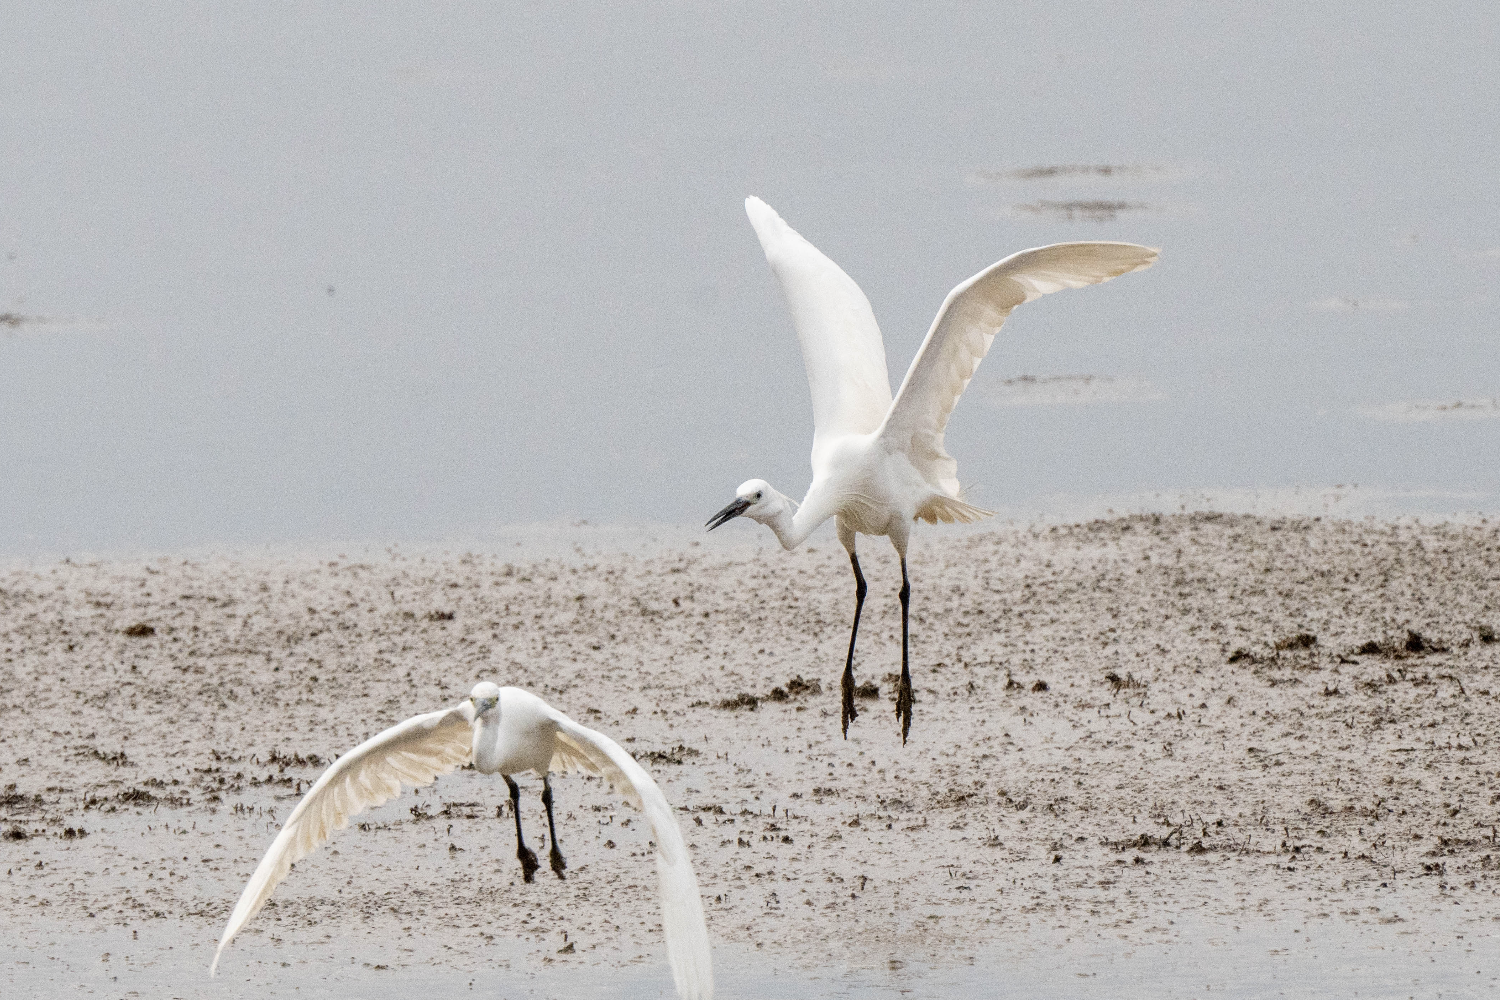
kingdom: Animalia
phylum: Chordata
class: Aves
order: Pelecaniformes
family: Ardeidae
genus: Egretta
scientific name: Egretta garzetta
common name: Little egret
